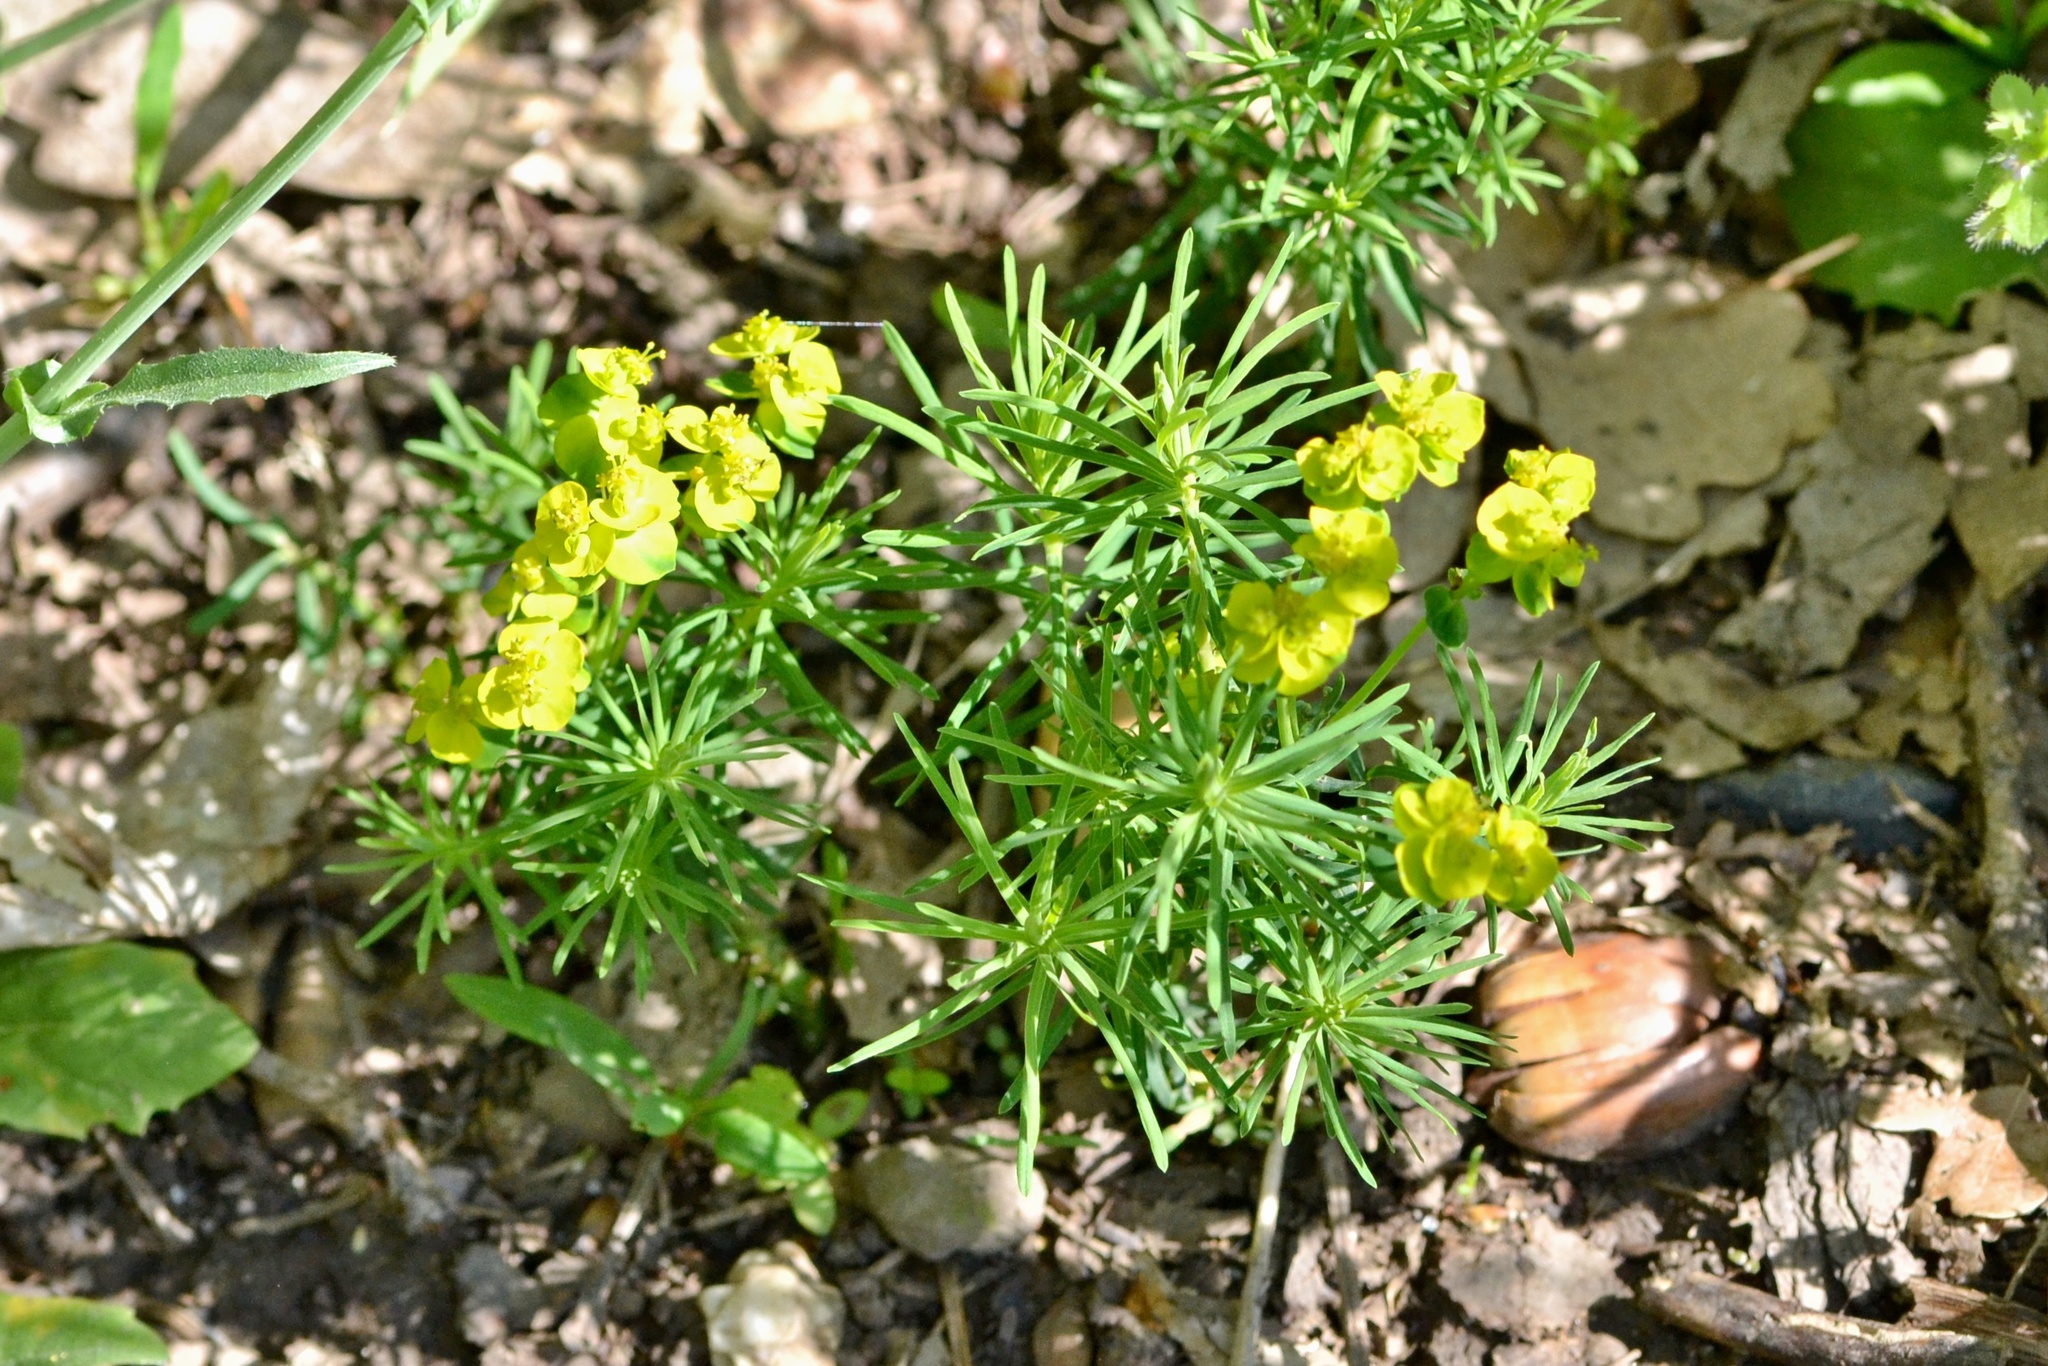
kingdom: Plantae
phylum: Tracheophyta
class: Magnoliopsida
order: Malpighiales
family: Euphorbiaceae
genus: Euphorbia
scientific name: Euphorbia cyparissias
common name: Cypress spurge
